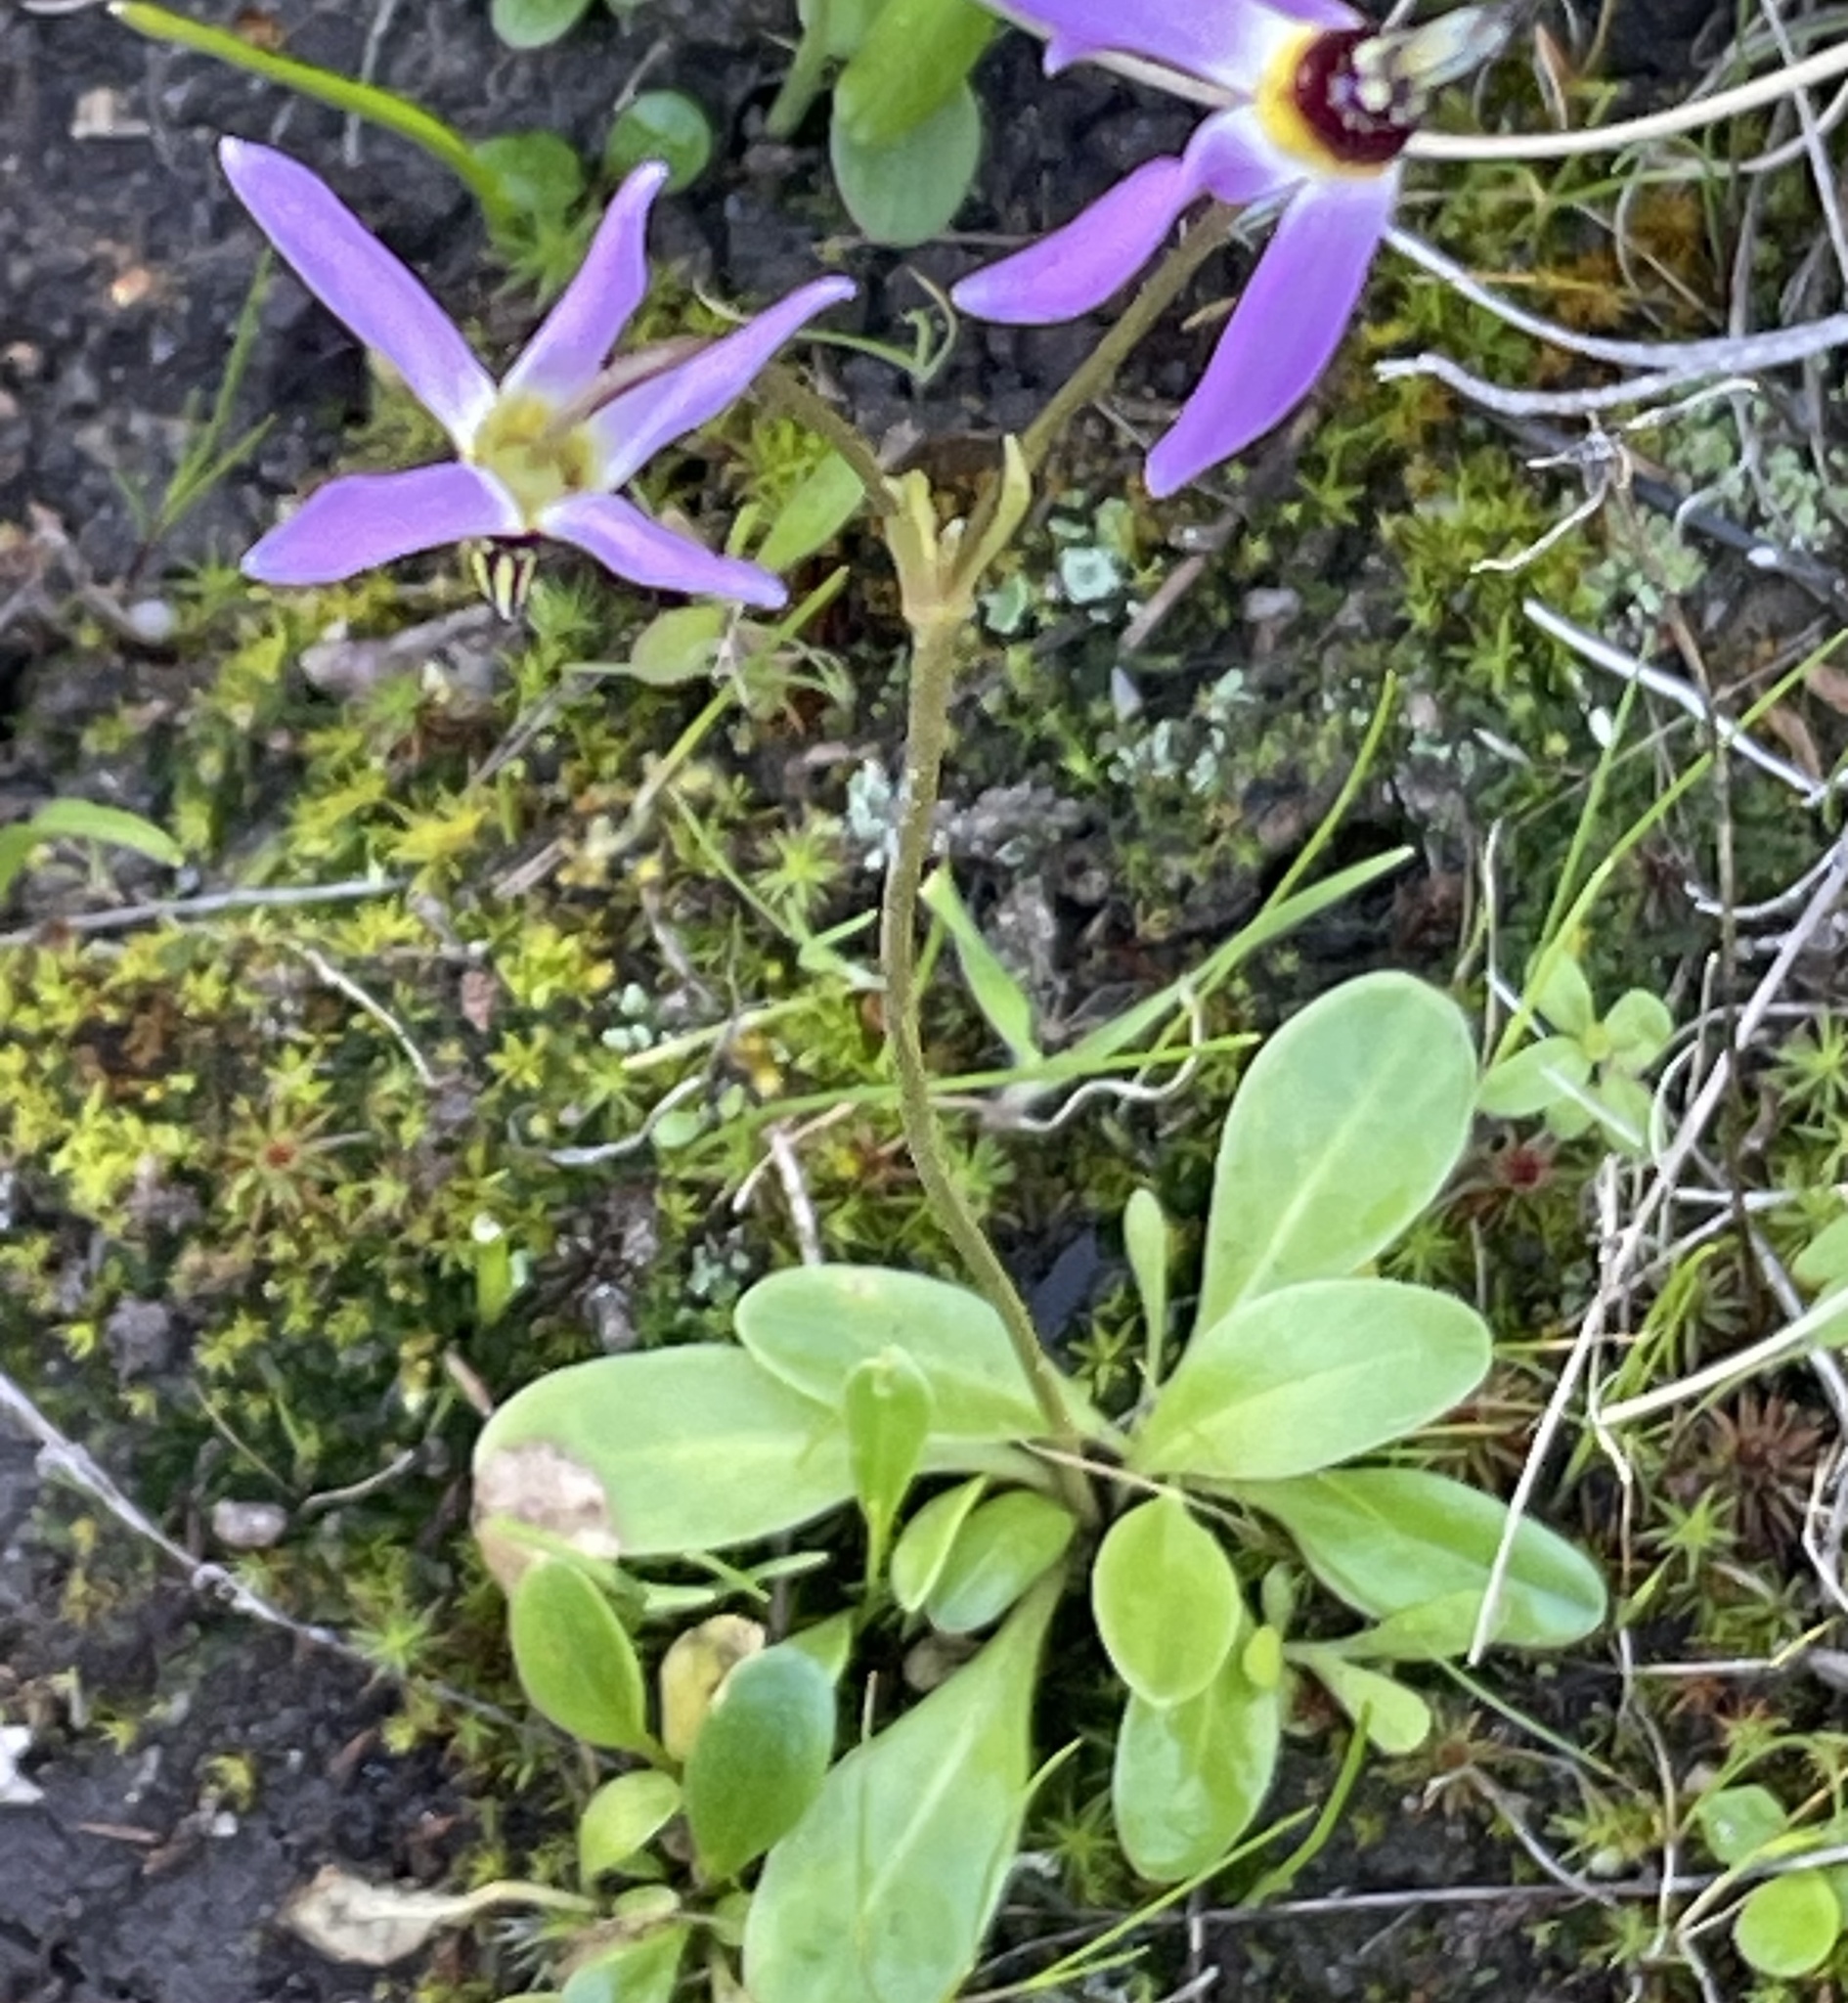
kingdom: Plantae
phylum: Tracheophyta
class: Magnoliopsida
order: Ericales
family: Primulaceae
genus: Dodecatheon
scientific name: Dodecatheon clevelandii
